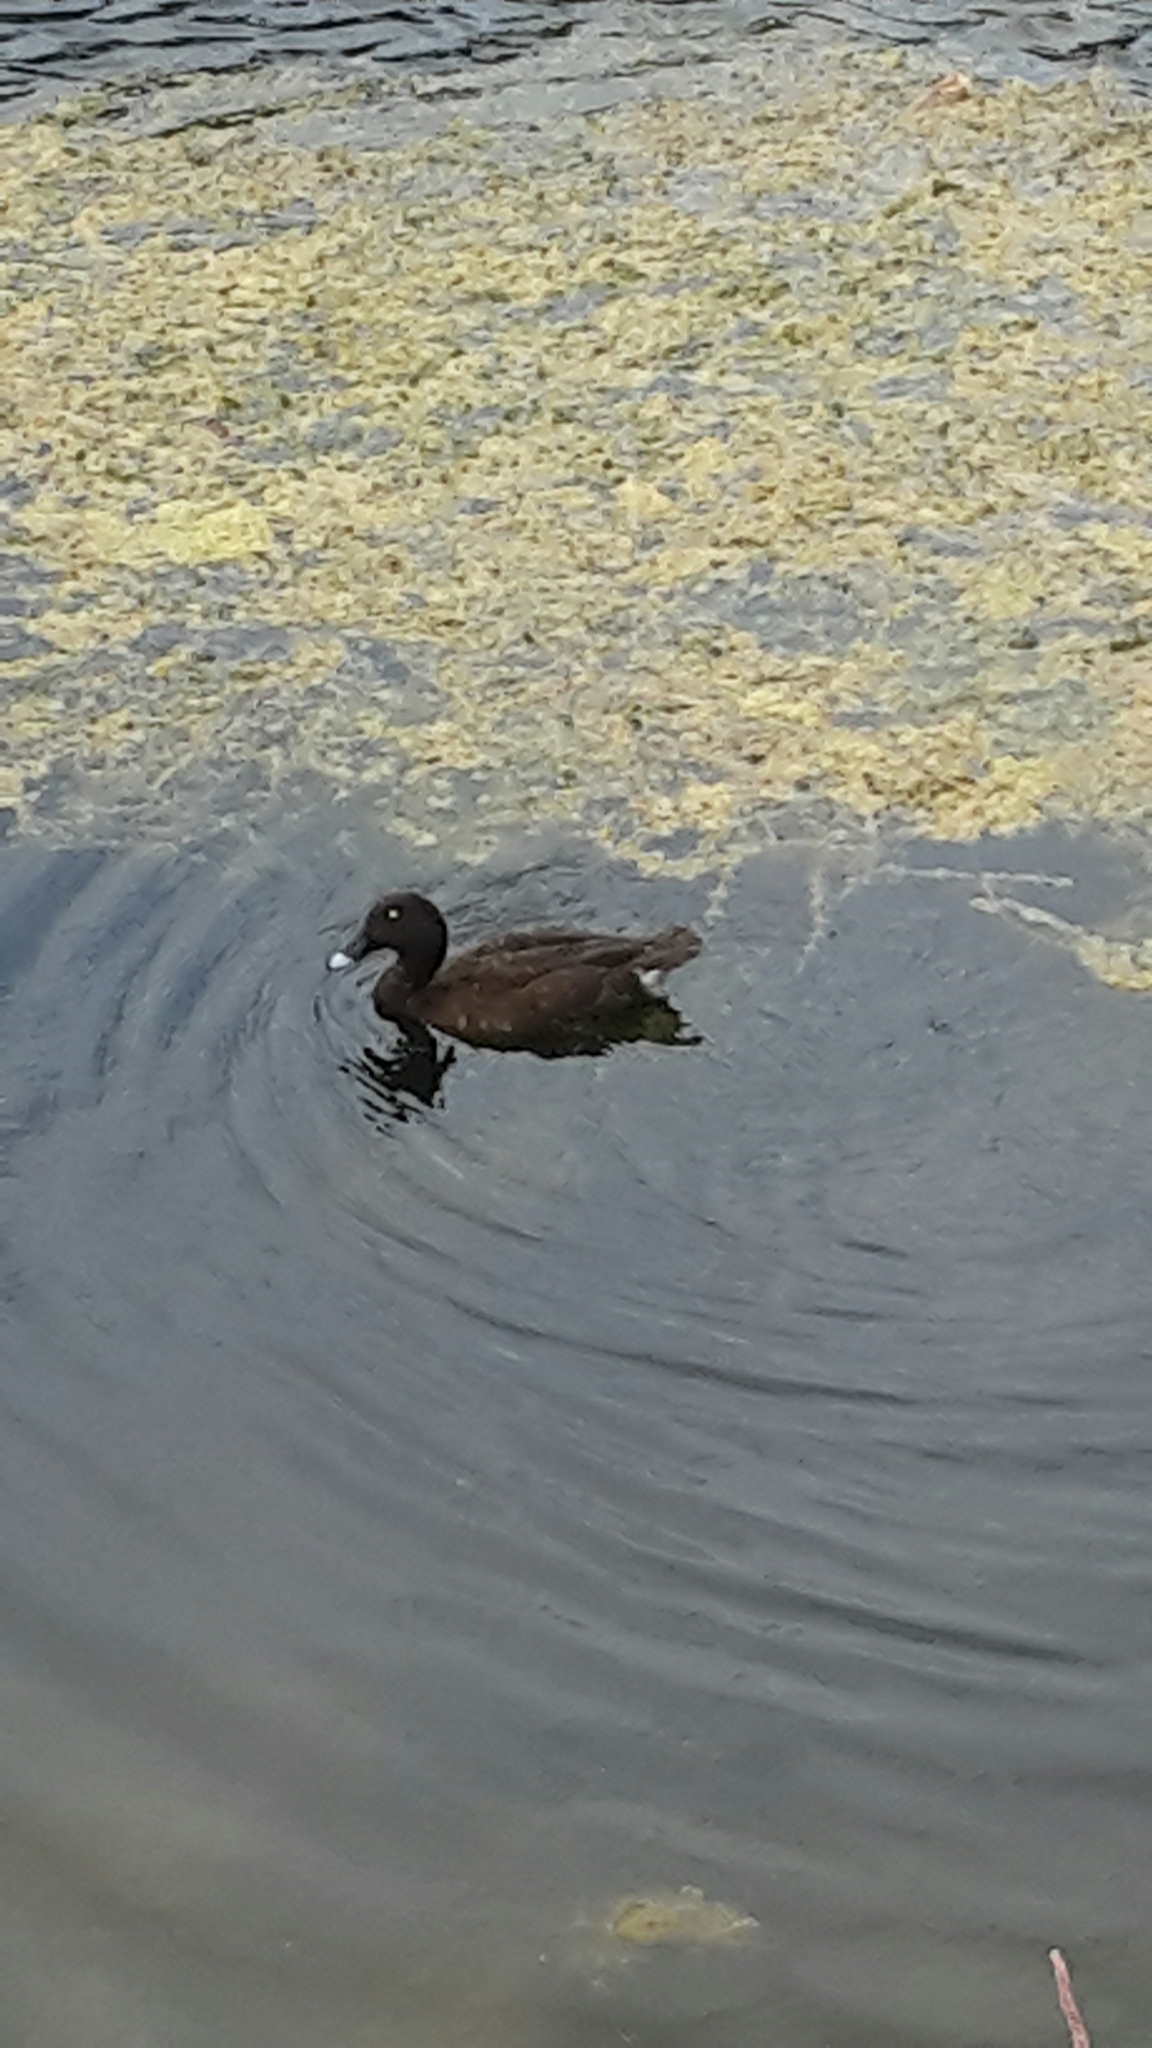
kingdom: Animalia
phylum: Chordata
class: Aves
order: Anseriformes
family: Anatidae
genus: Aythya
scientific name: Aythya australis
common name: Hardhead
